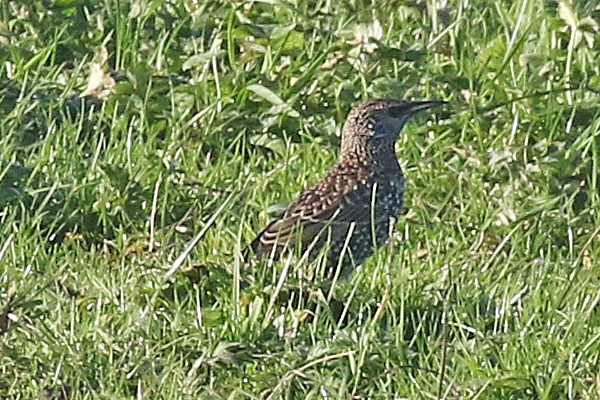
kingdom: Animalia
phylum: Chordata
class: Aves
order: Passeriformes
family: Sturnidae
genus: Sturnus
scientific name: Sturnus vulgaris
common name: Common starling
